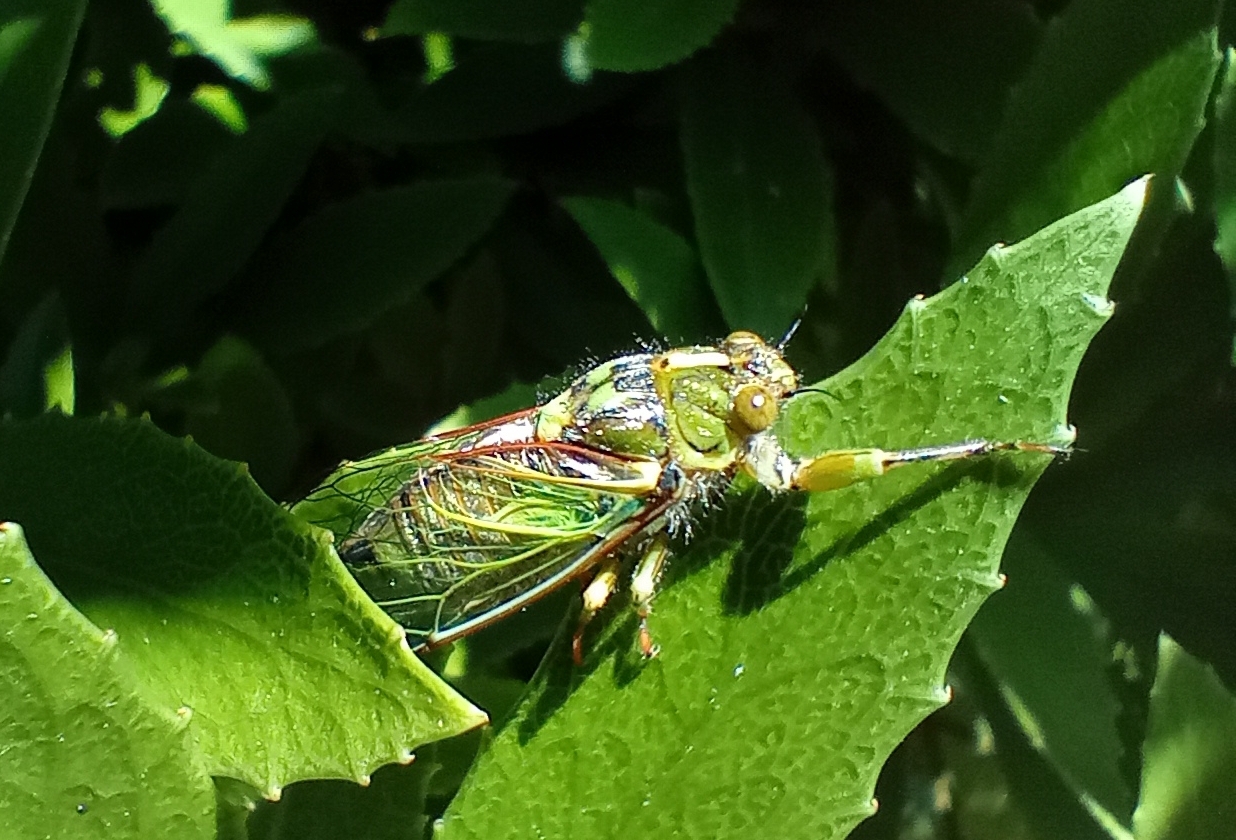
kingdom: Animalia
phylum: Arthropoda
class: Insecta
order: Hemiptera
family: Cicadidae
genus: Kikihia
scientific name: Kikihia rosea
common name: Murihiku cicada
